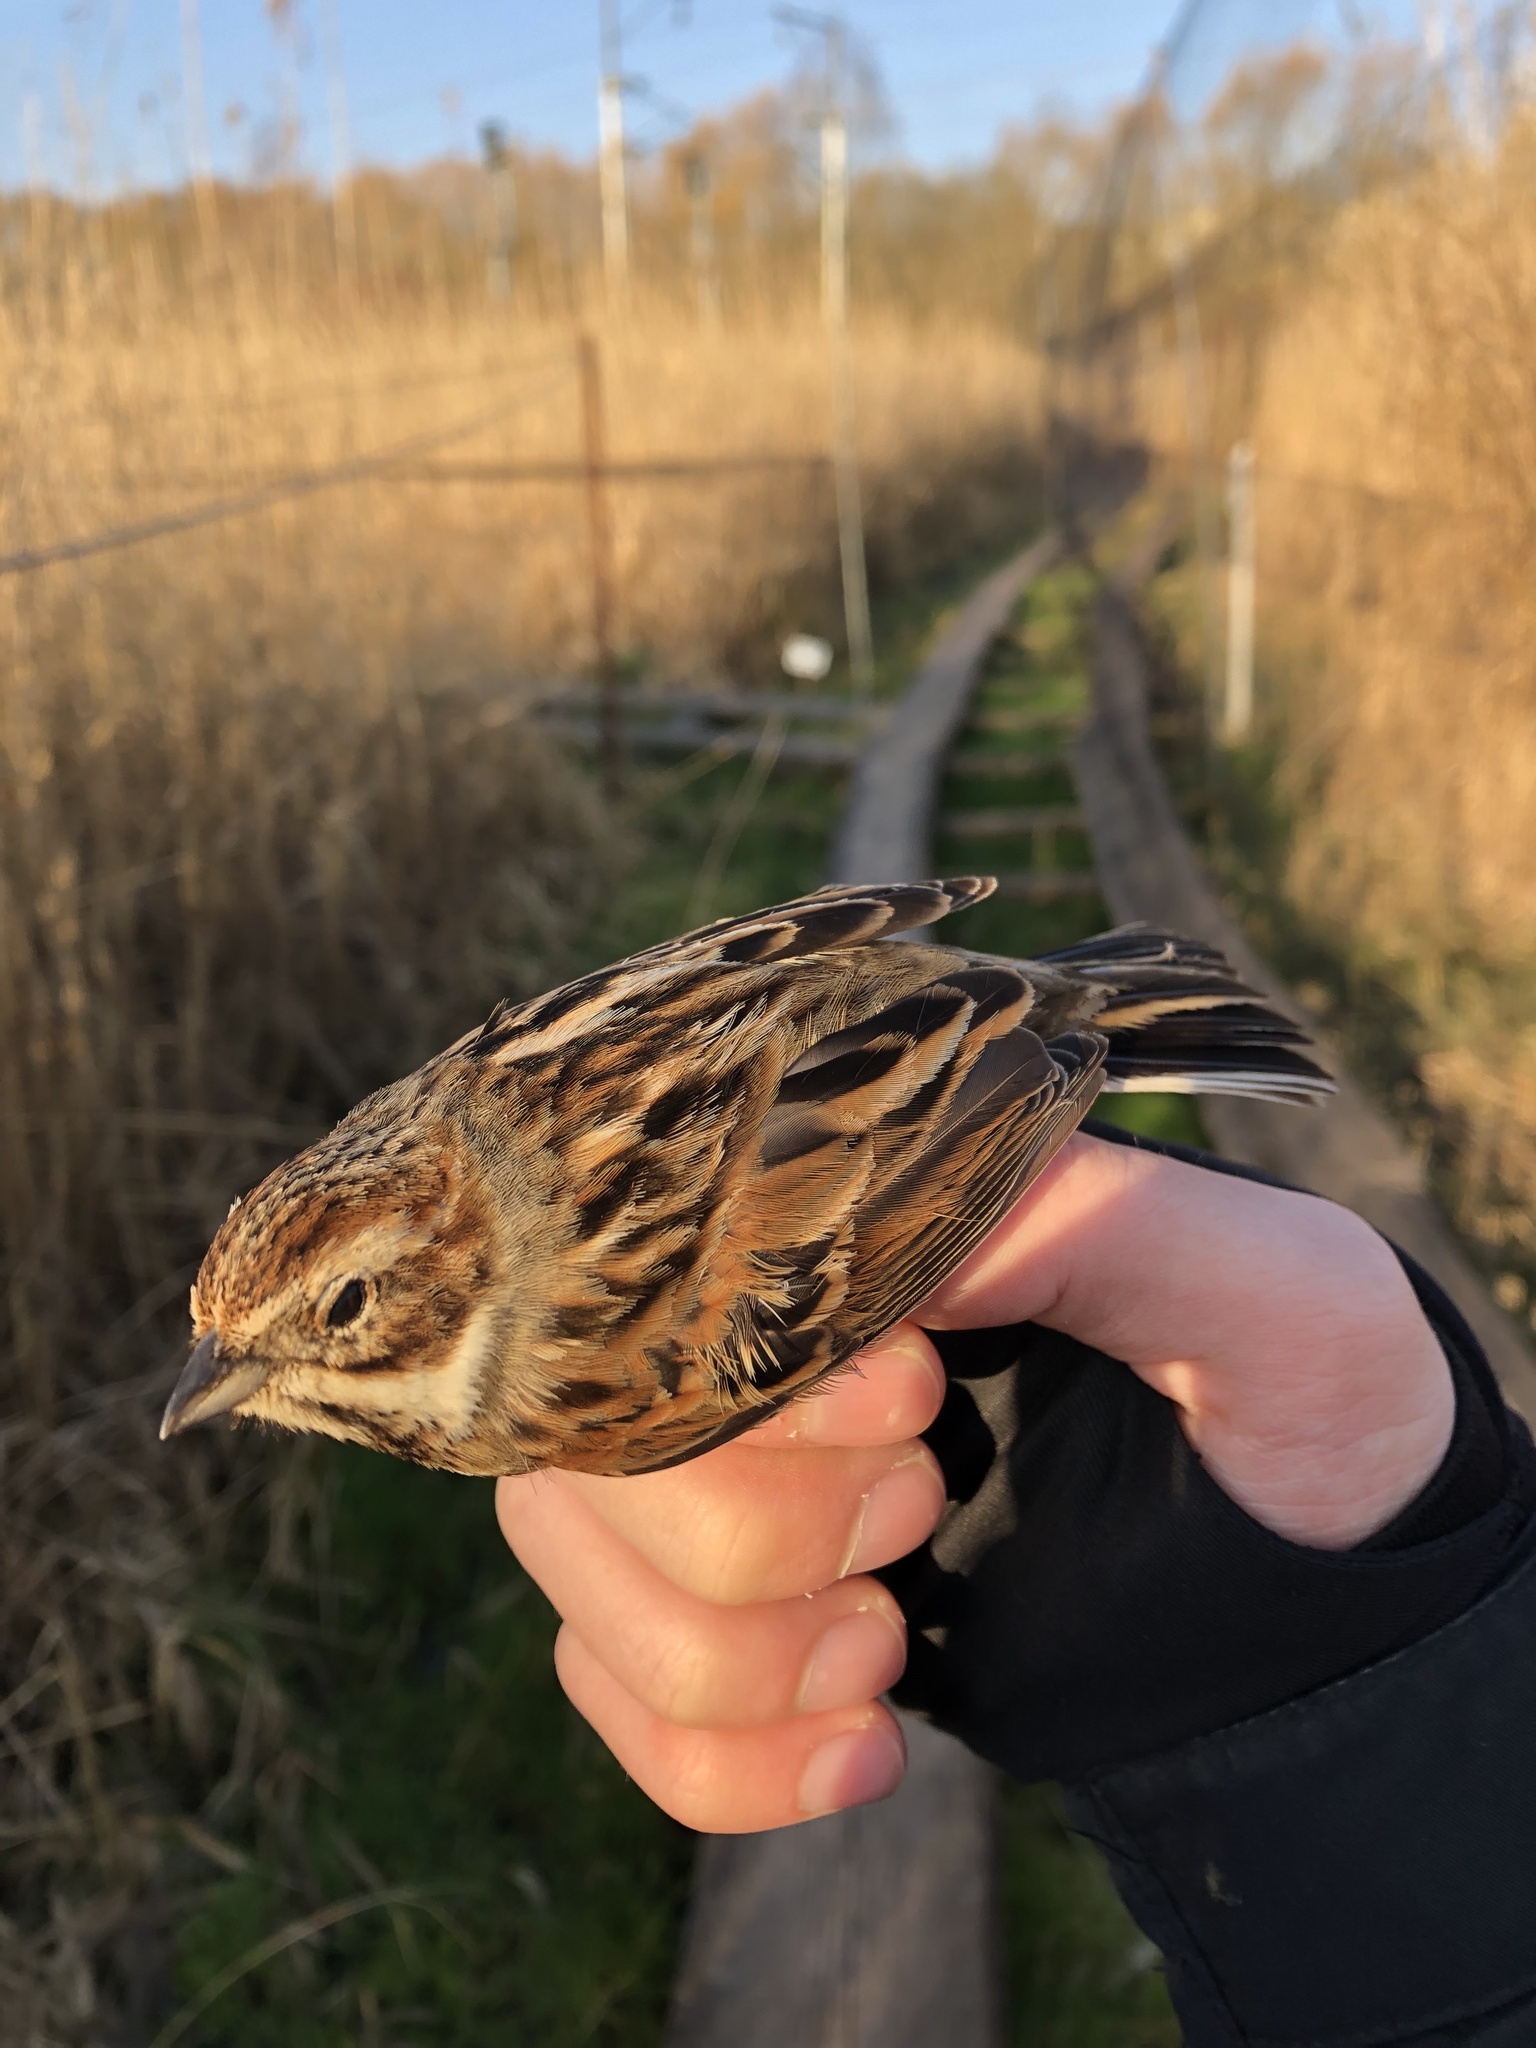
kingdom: Animalia
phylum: Chordata
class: Aves
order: Passeriformes
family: Emberizidae
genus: Emberiza
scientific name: Emberiza schoeniclus
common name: Reed bunting
